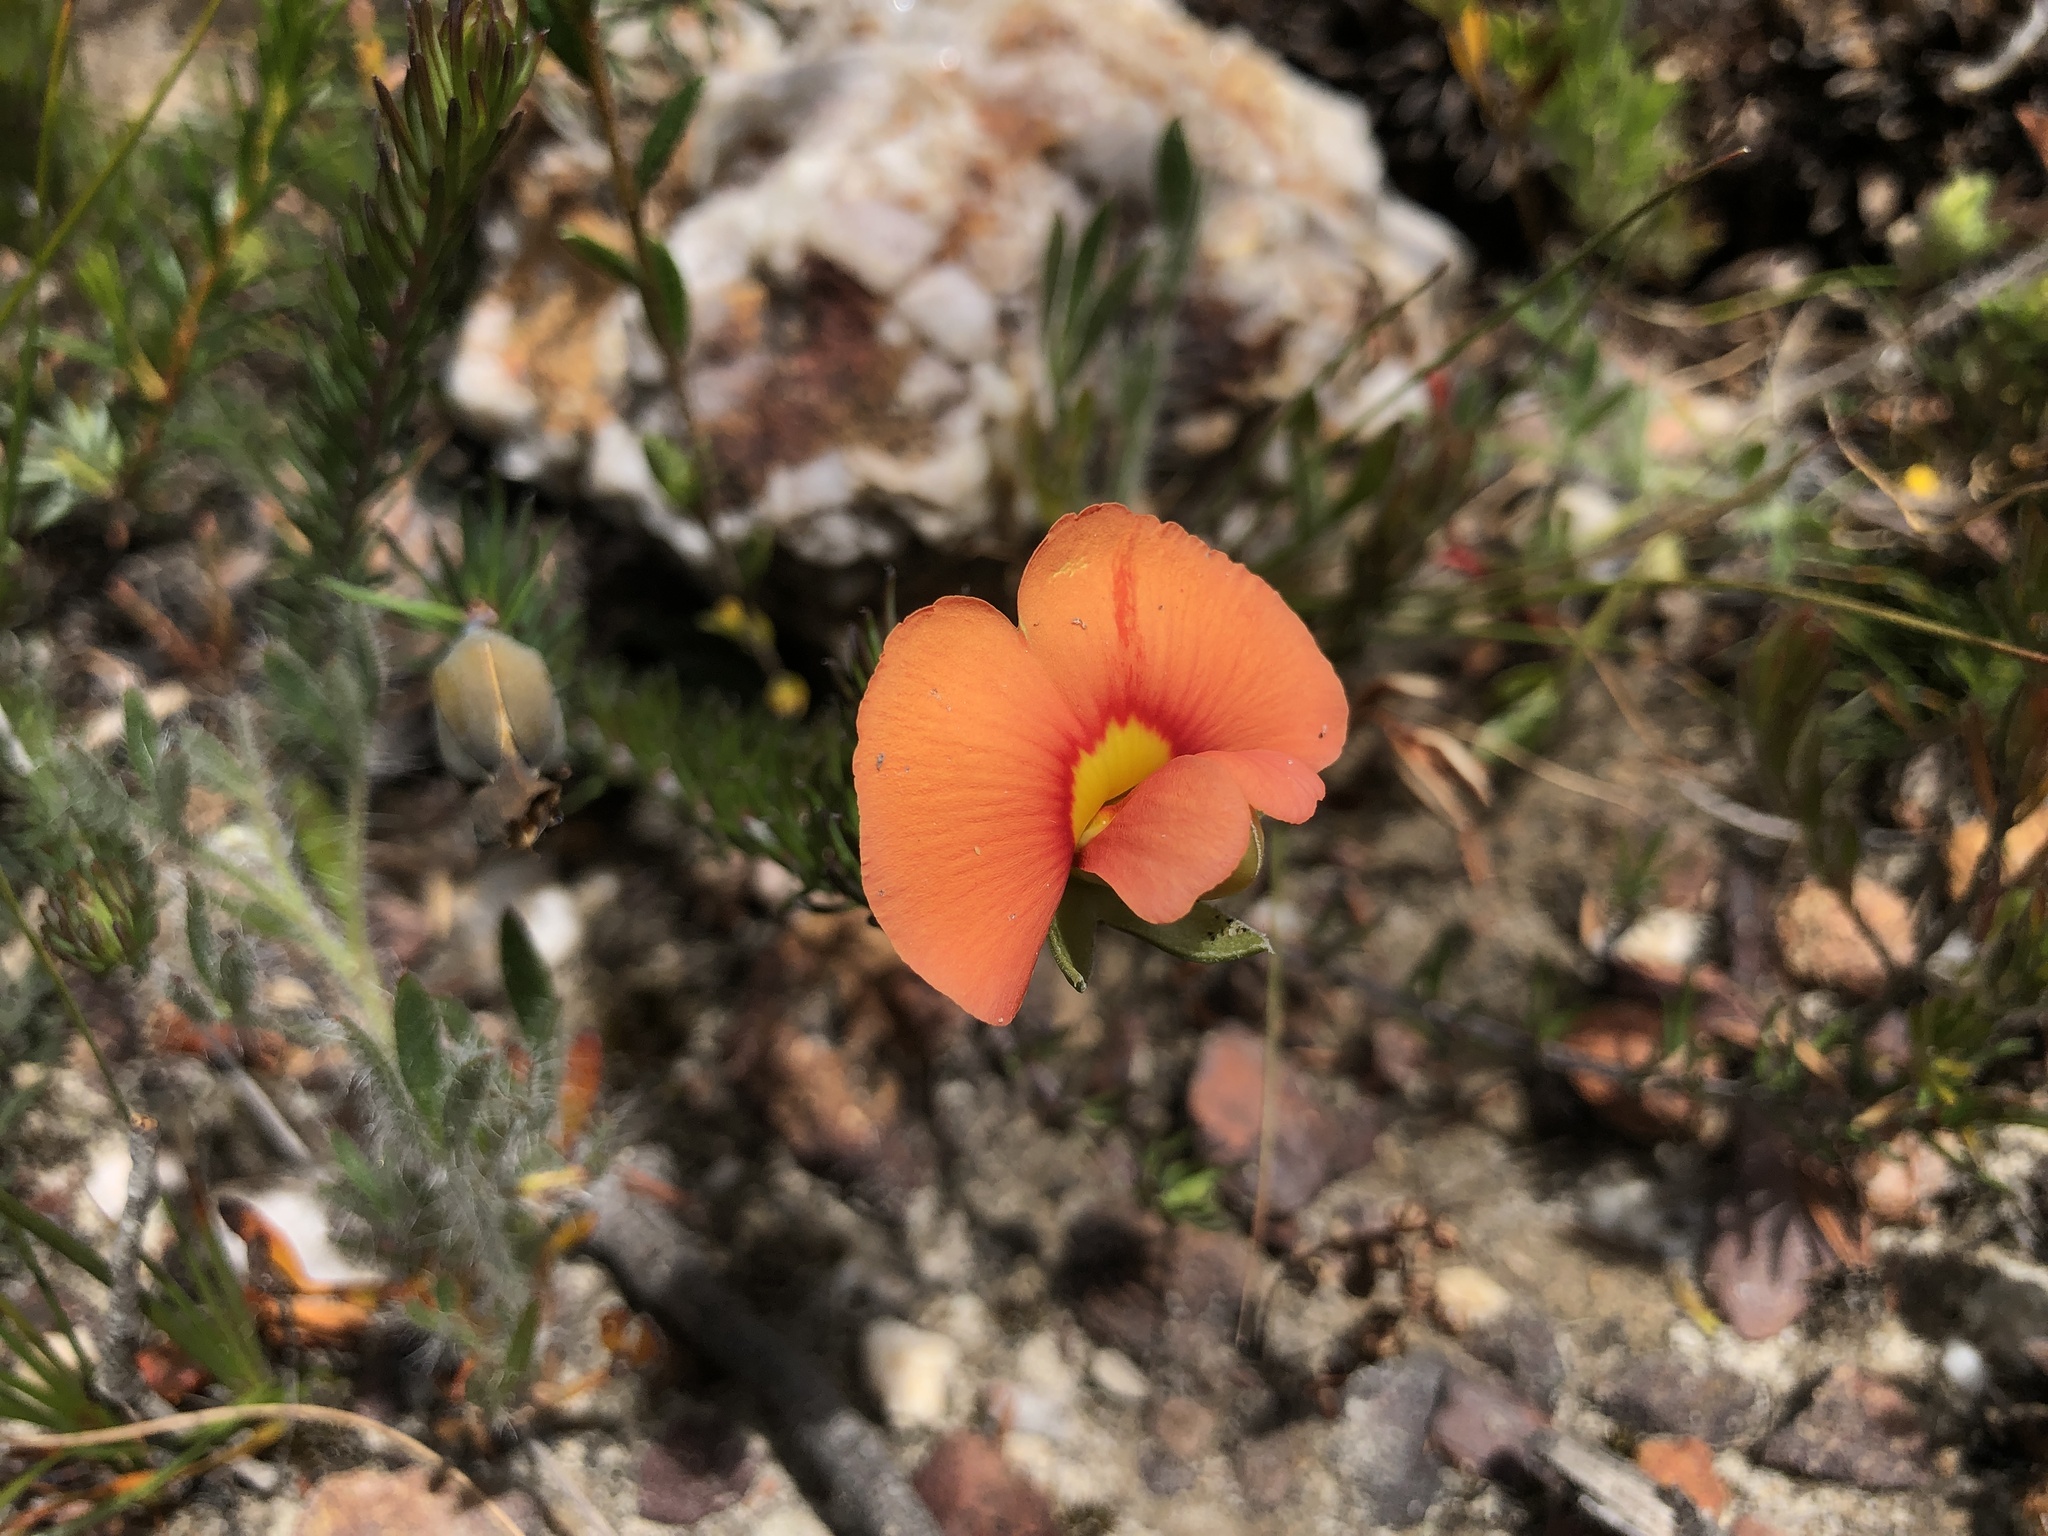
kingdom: Plantae
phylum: Tracheophyta
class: Magnoliopsida
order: Fabales
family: Fabaceae
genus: Gompholobium
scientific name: Gompholobium ecostatum
